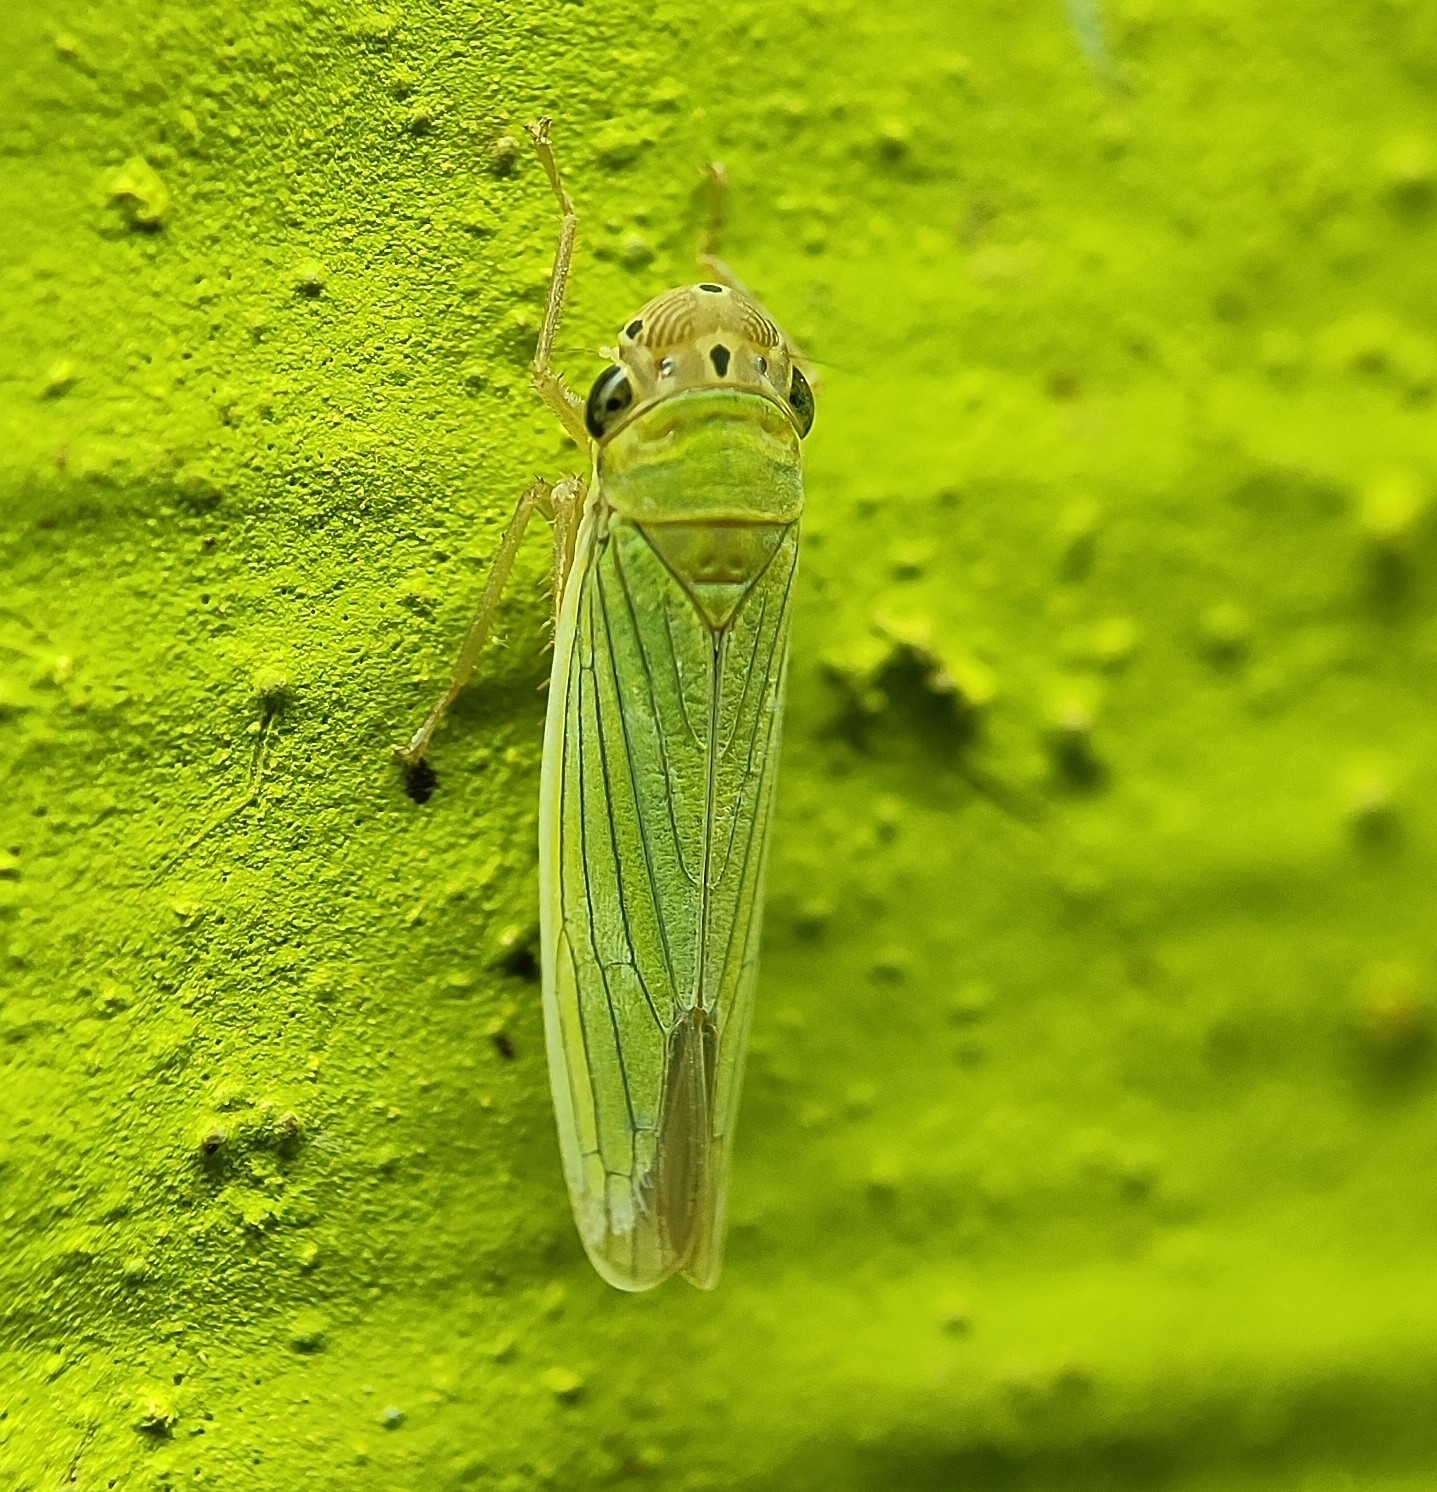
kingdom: Animalia
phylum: Arthropoda
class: Insecta
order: Hemiptera
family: Cicadellidae
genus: Cofana
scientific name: Cofana subvirescens
